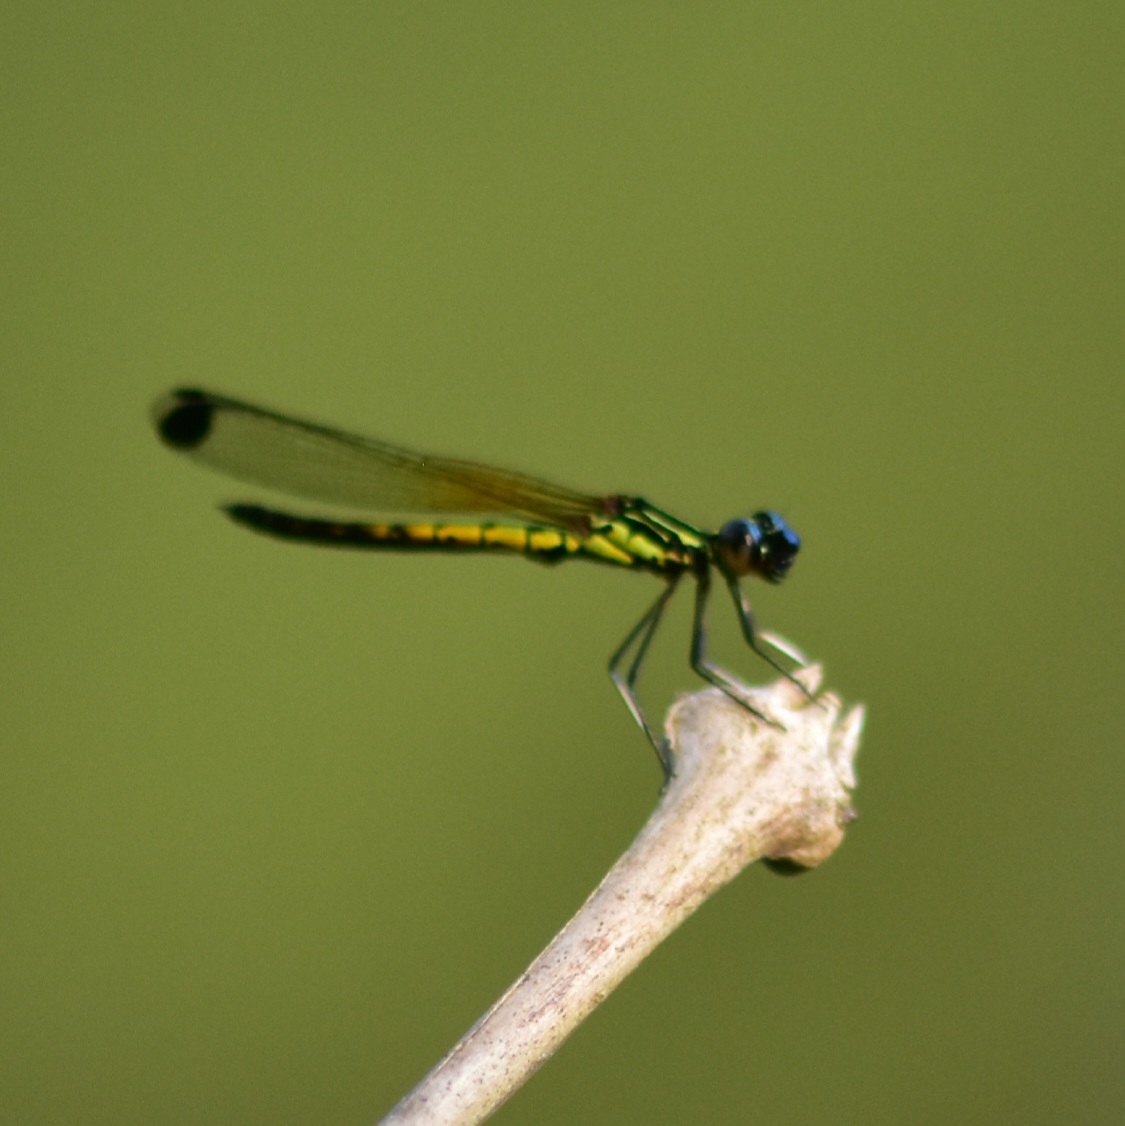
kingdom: Animalia
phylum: Arthropoda
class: Insecta
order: Odonata
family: Chlorocyphidae
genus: Libellago
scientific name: Libellago indica
